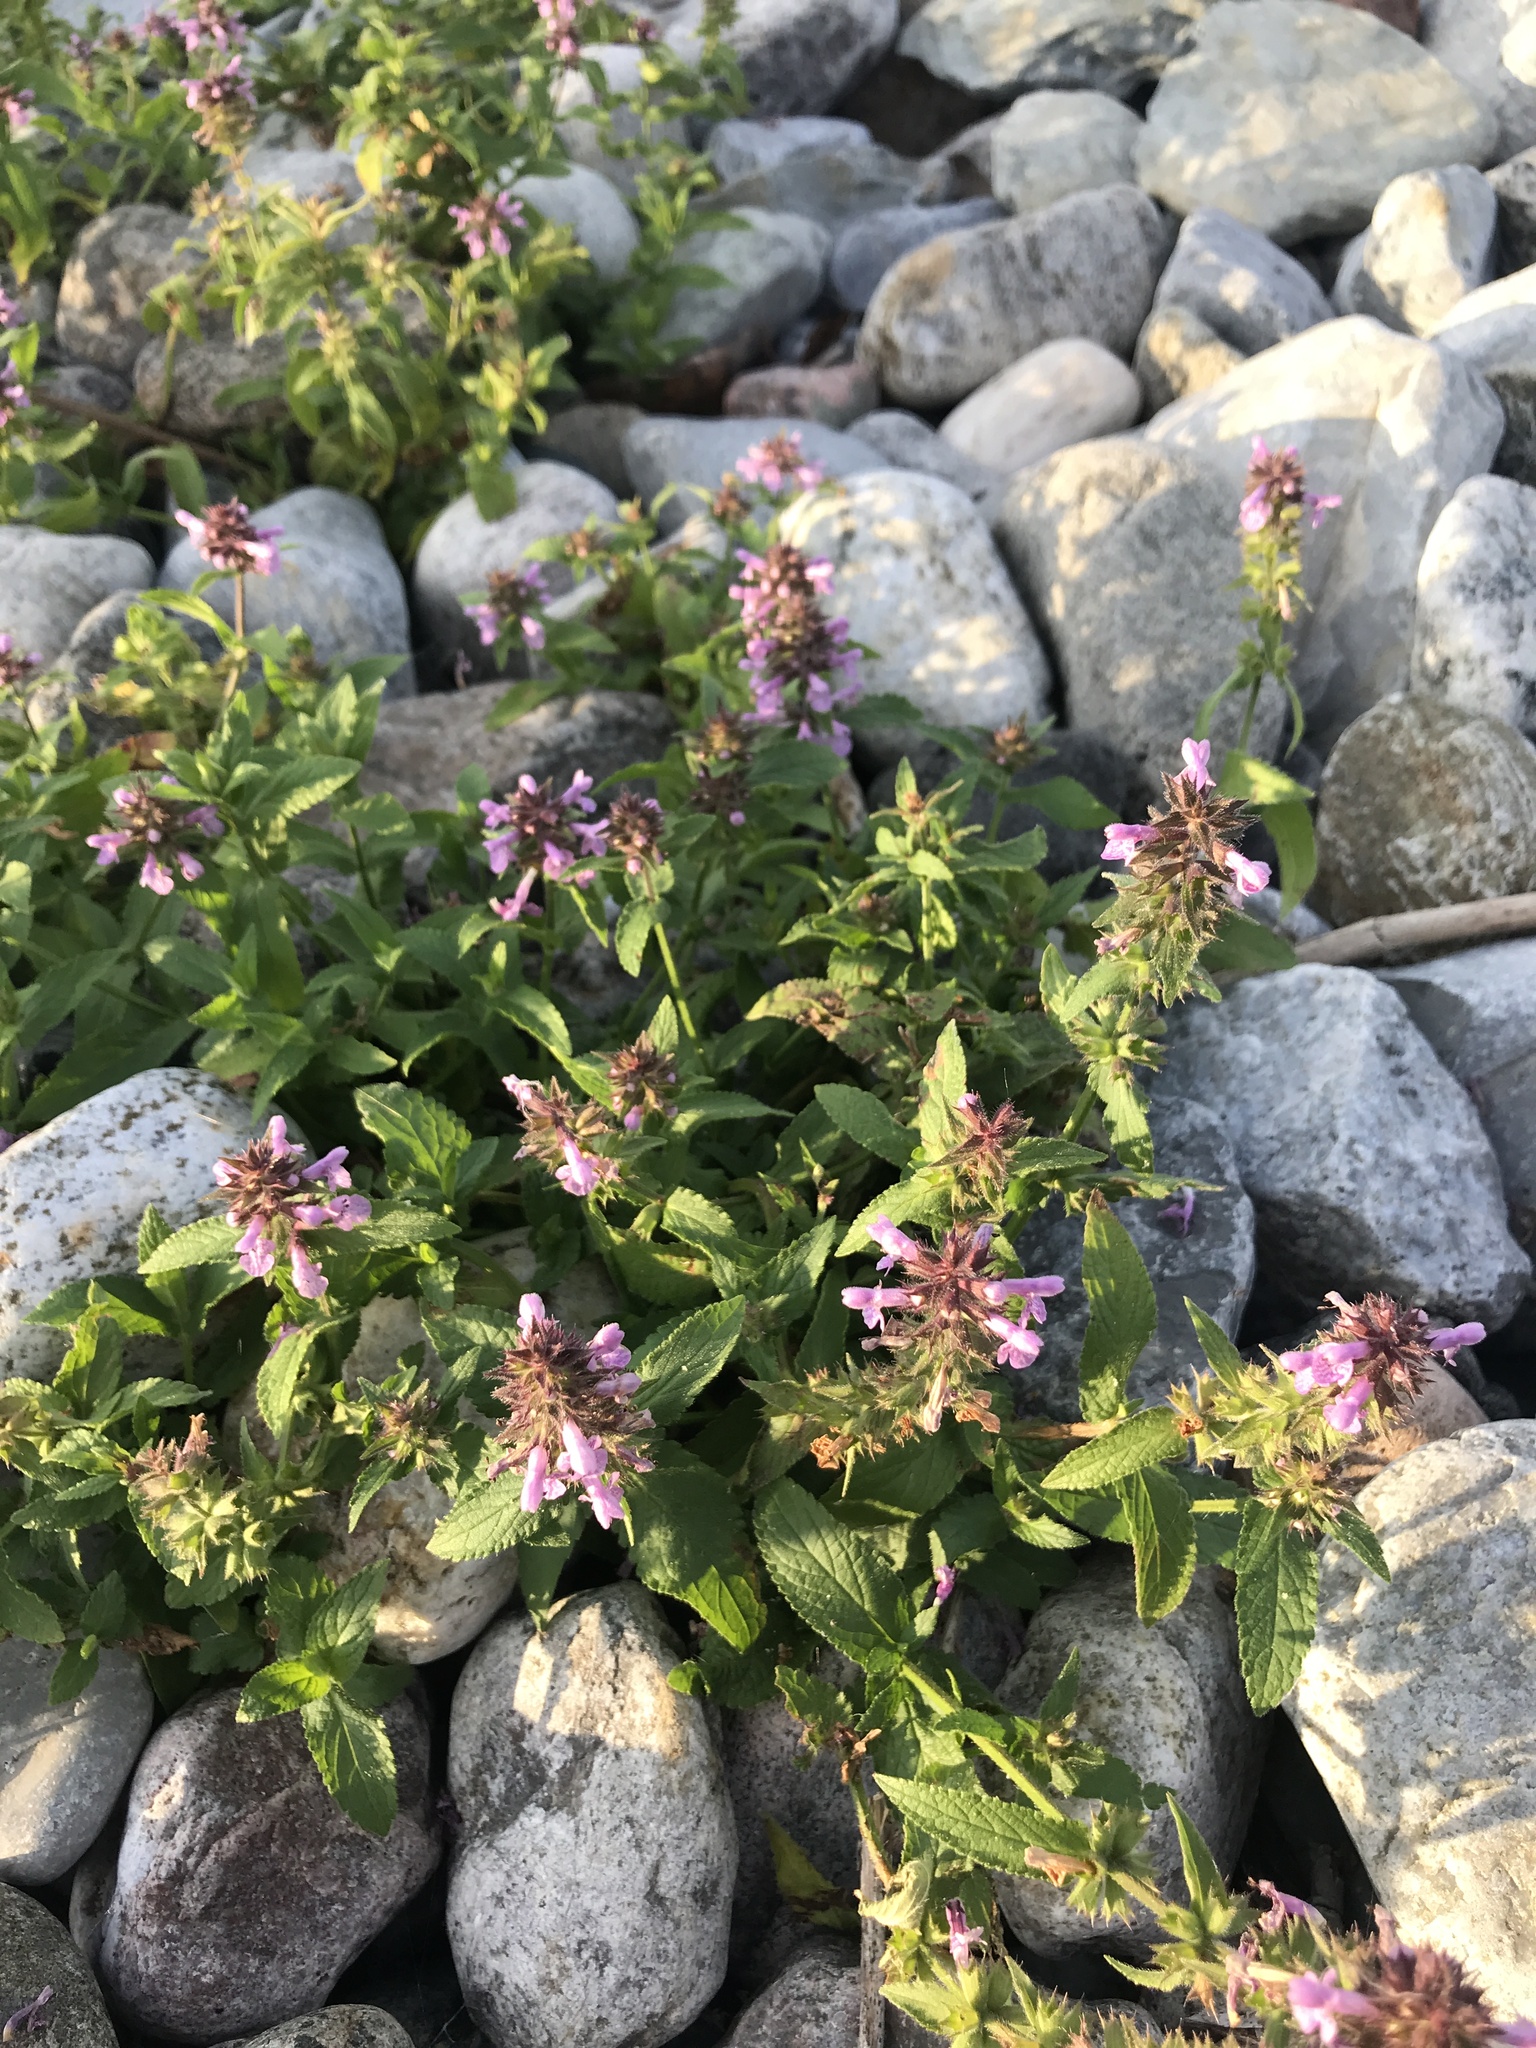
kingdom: Plantae
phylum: Tracheophyta
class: Magnoliopsida
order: Lamiales
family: Lamiaceae
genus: Stachys
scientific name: Stachys palustris
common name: Marsh woundwort
